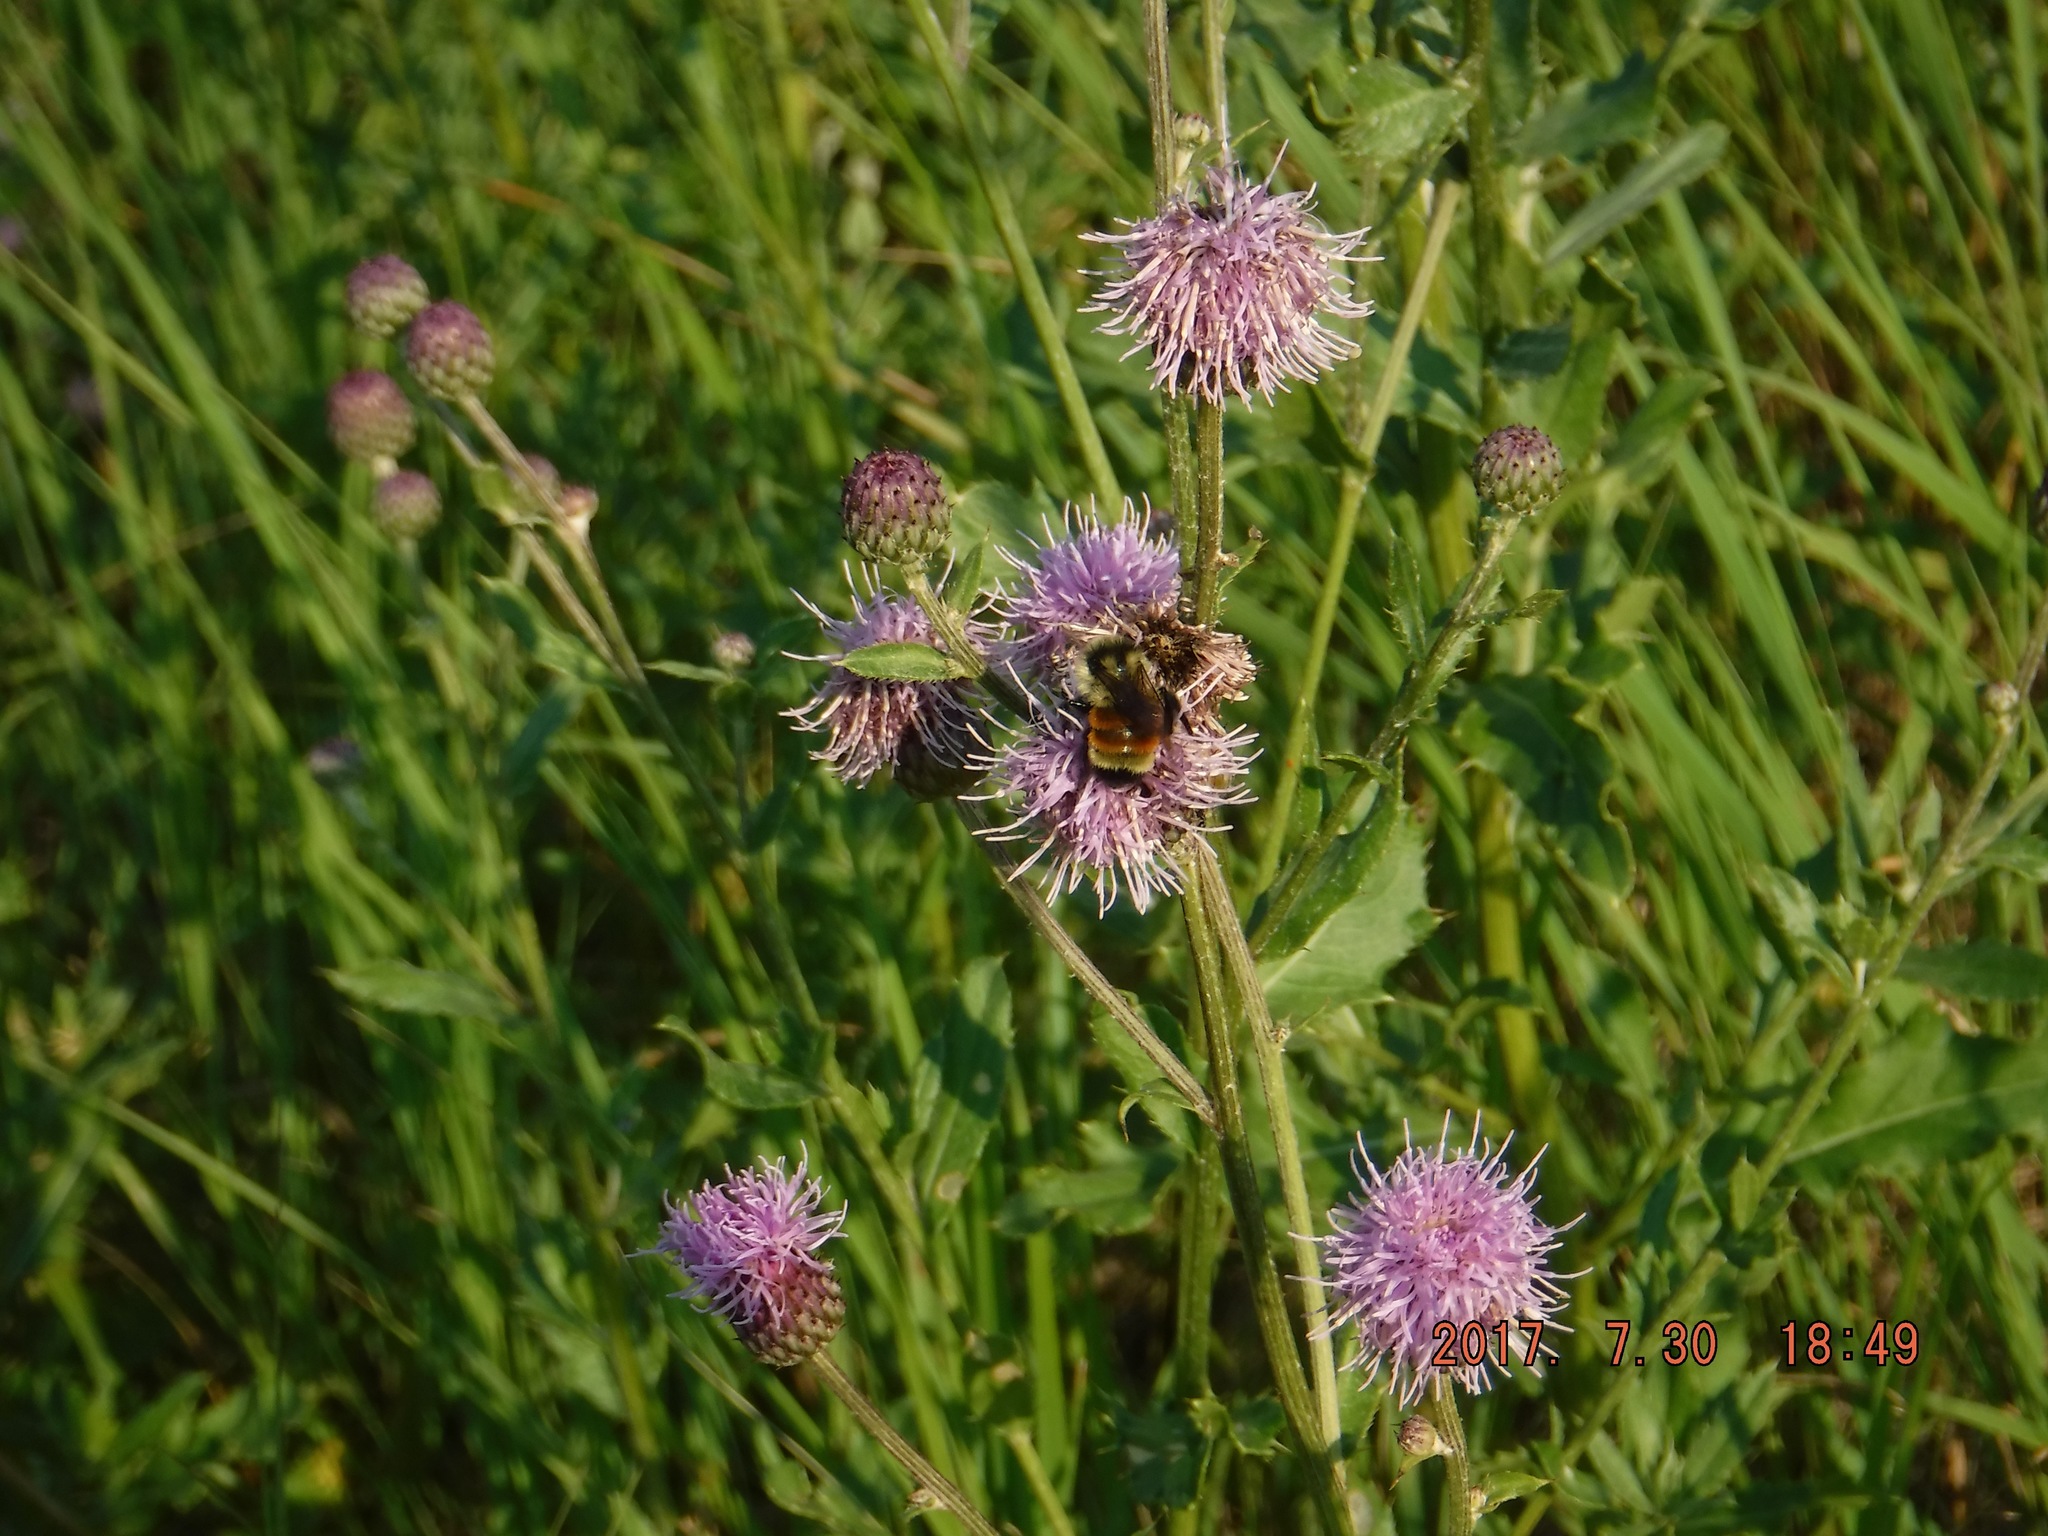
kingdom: Animalia
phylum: Arthropoda
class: Insecta
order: Hymenoptera
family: Apidae
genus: Bombus
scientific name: Bombus ternarius
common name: Tri-colored bumble bee
